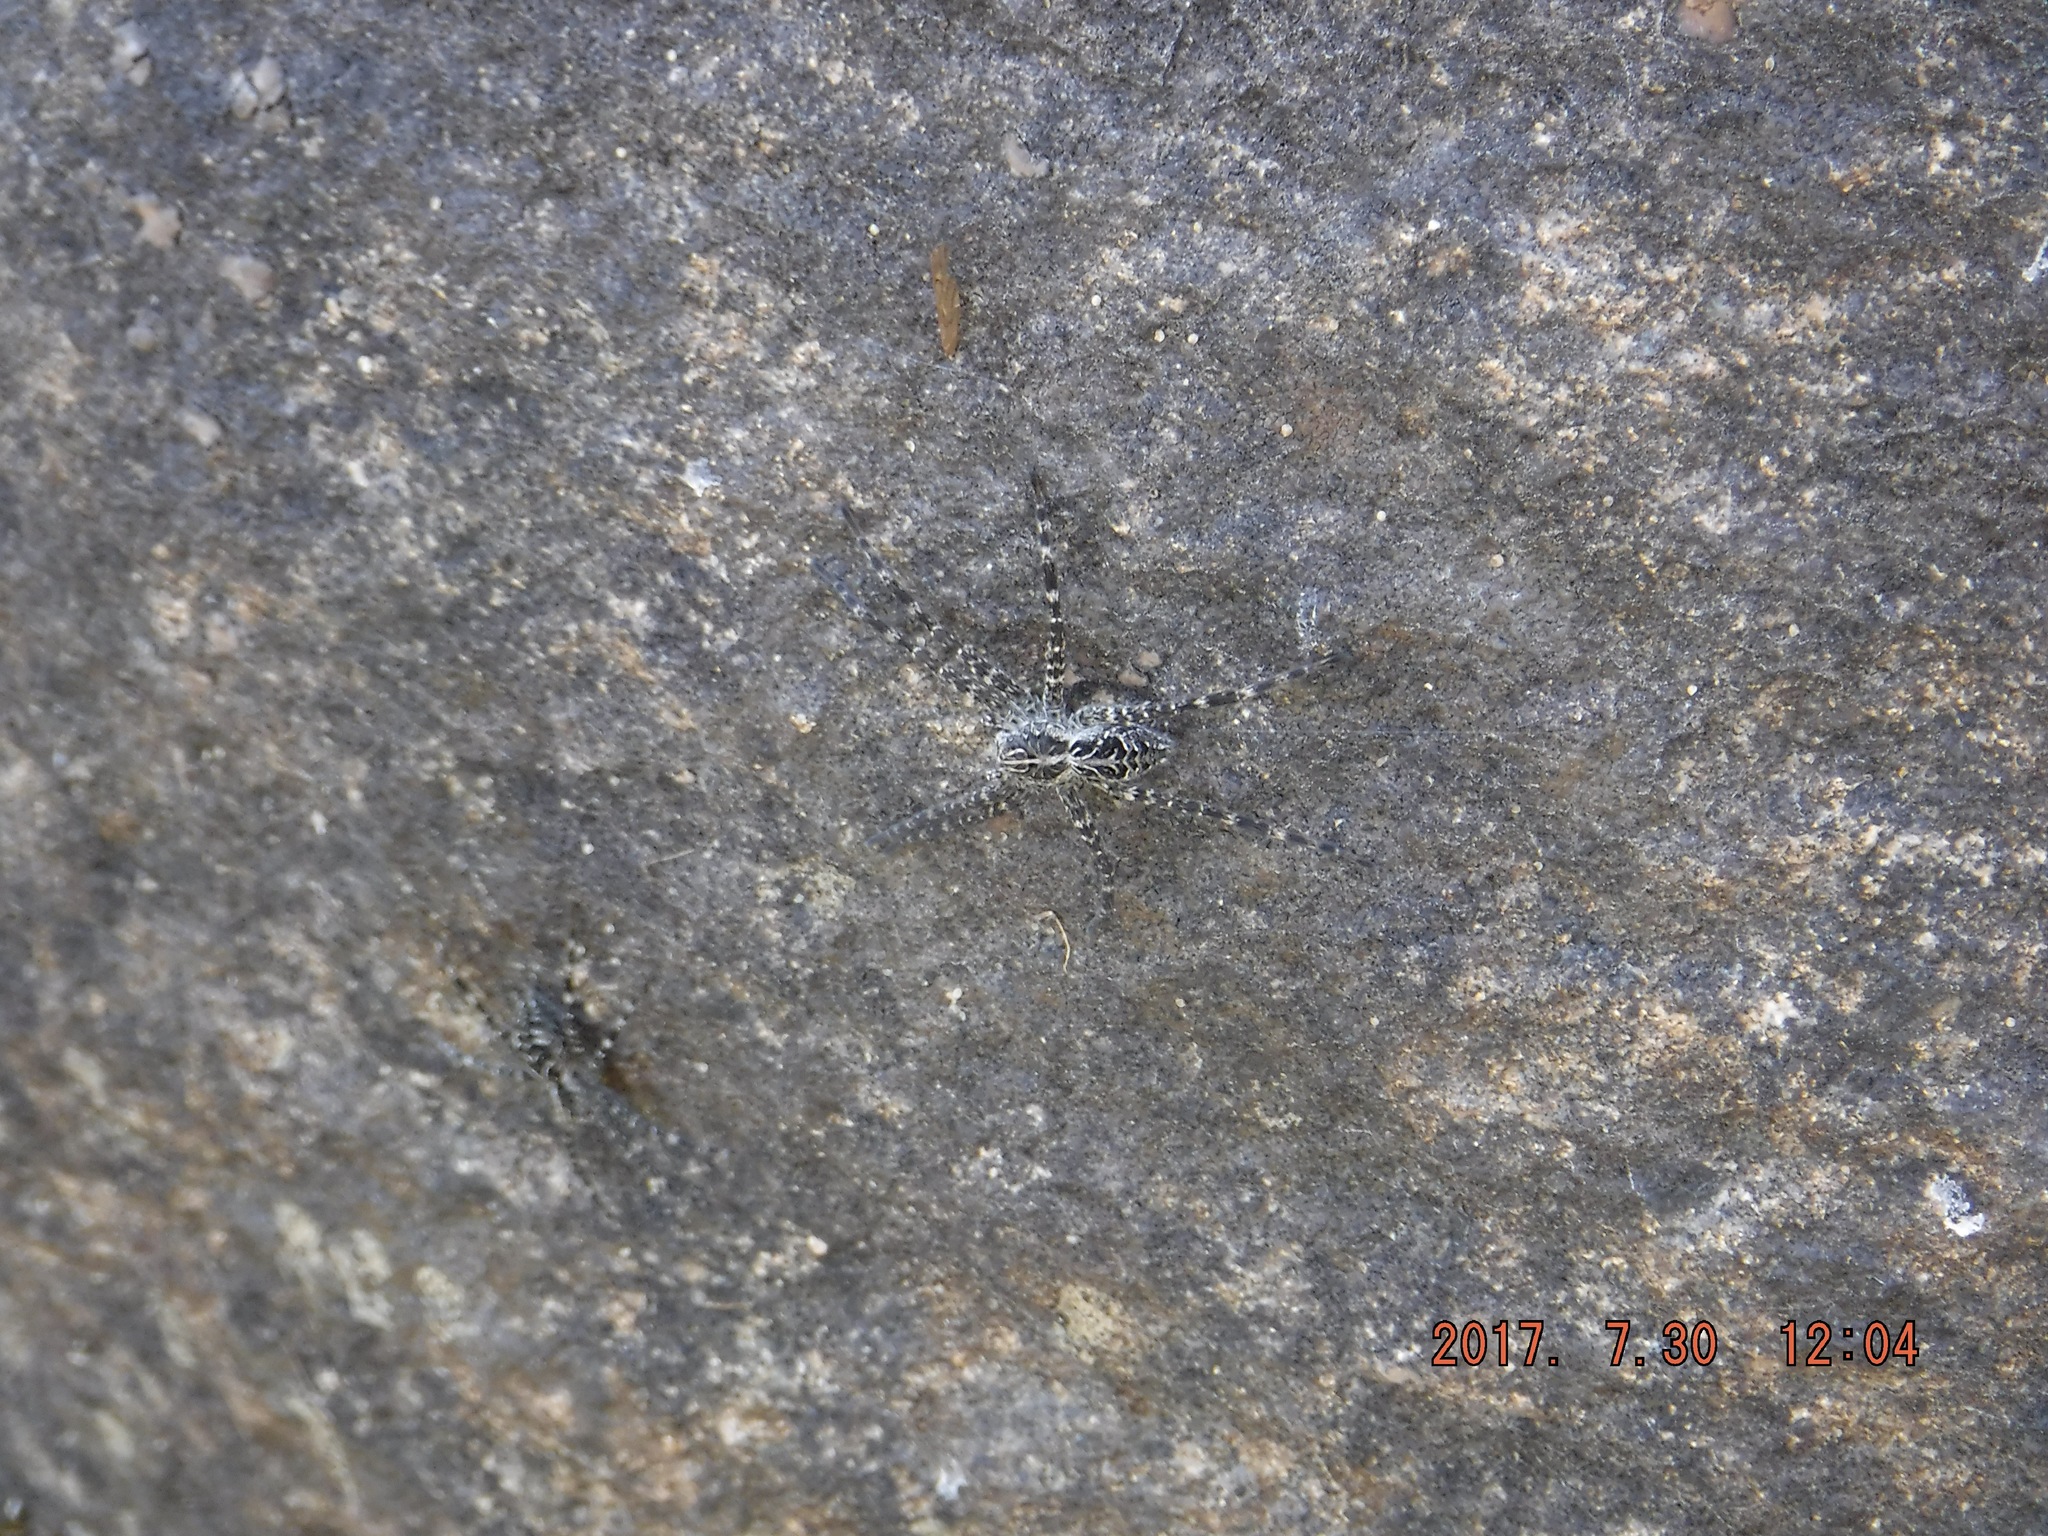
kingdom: Animalia
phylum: Arthropoda
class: Arachnida
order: Araneae
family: Pisauridae
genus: Dolomedes
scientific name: Dolomedes scriptus
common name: Striped fishing spider
